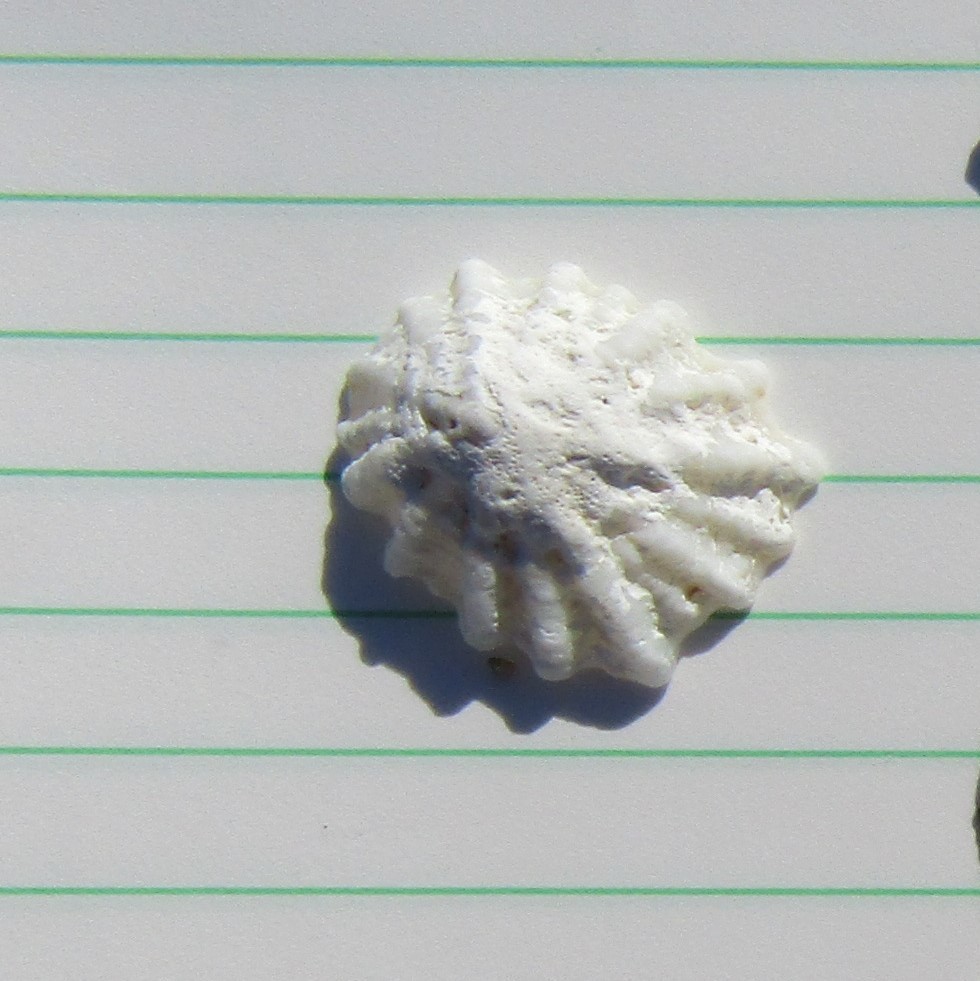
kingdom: Animalia
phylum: Mollusca
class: Gastropoda
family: Lottiidae
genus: Radiacmea
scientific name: Radiacmea inconspicua
